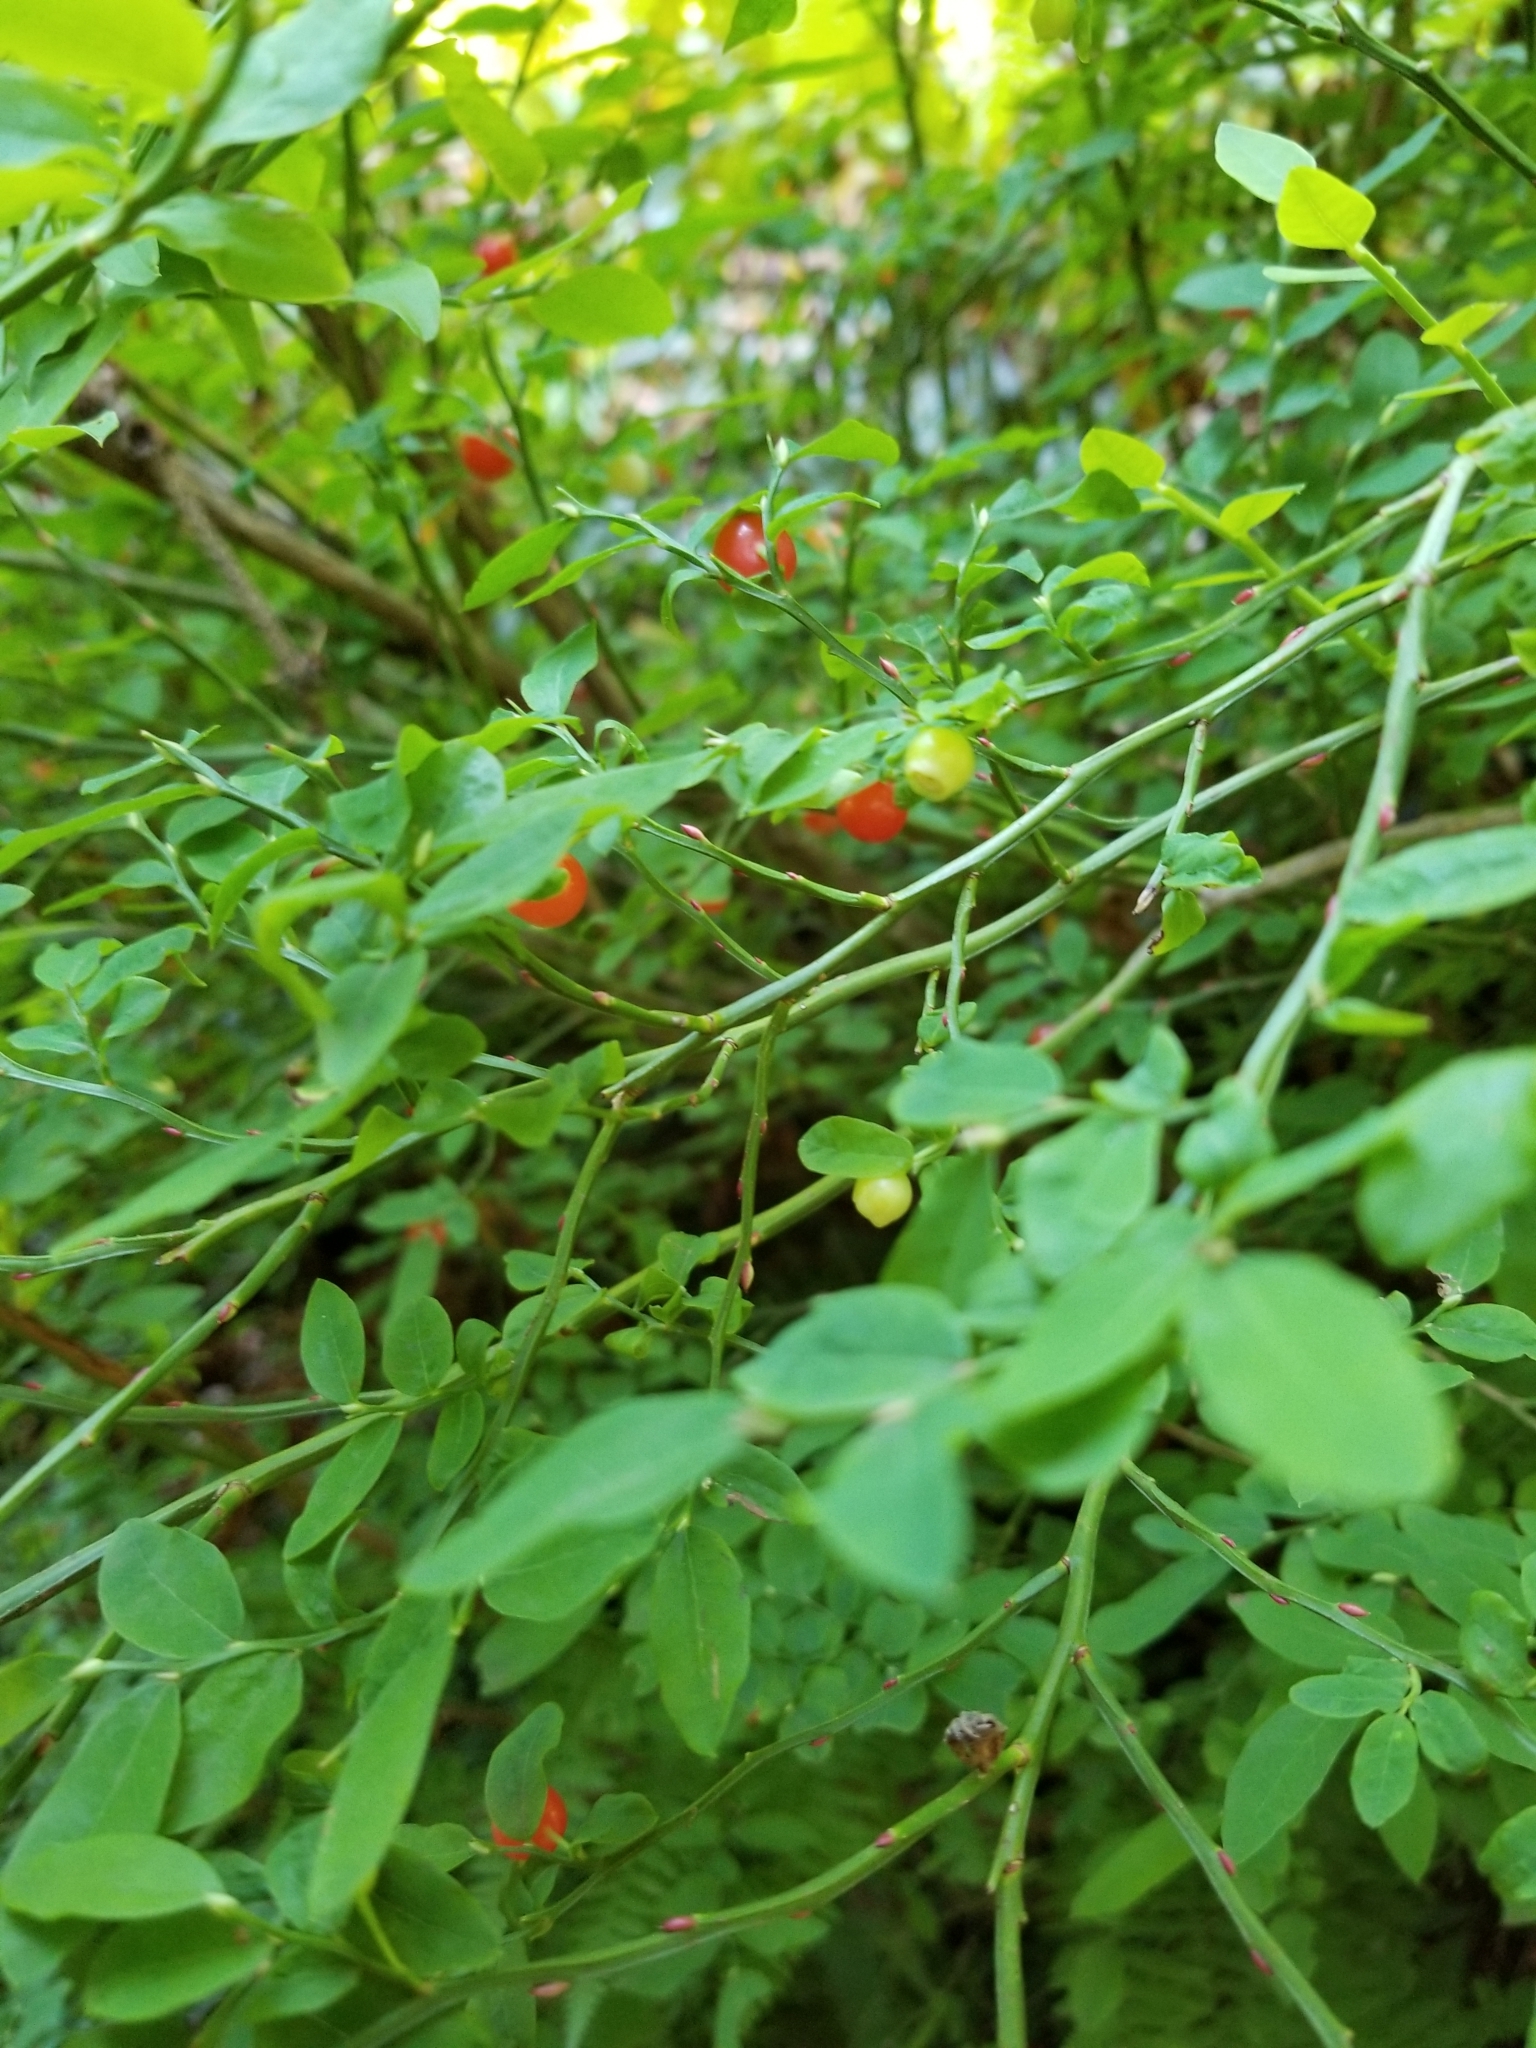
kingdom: Plantae
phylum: Tracheophyta
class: Magnoliopsida
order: Ericales
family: Ericaceae
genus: Vaccinium
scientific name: Vaccinium parvifolium
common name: Red-huckleberry
